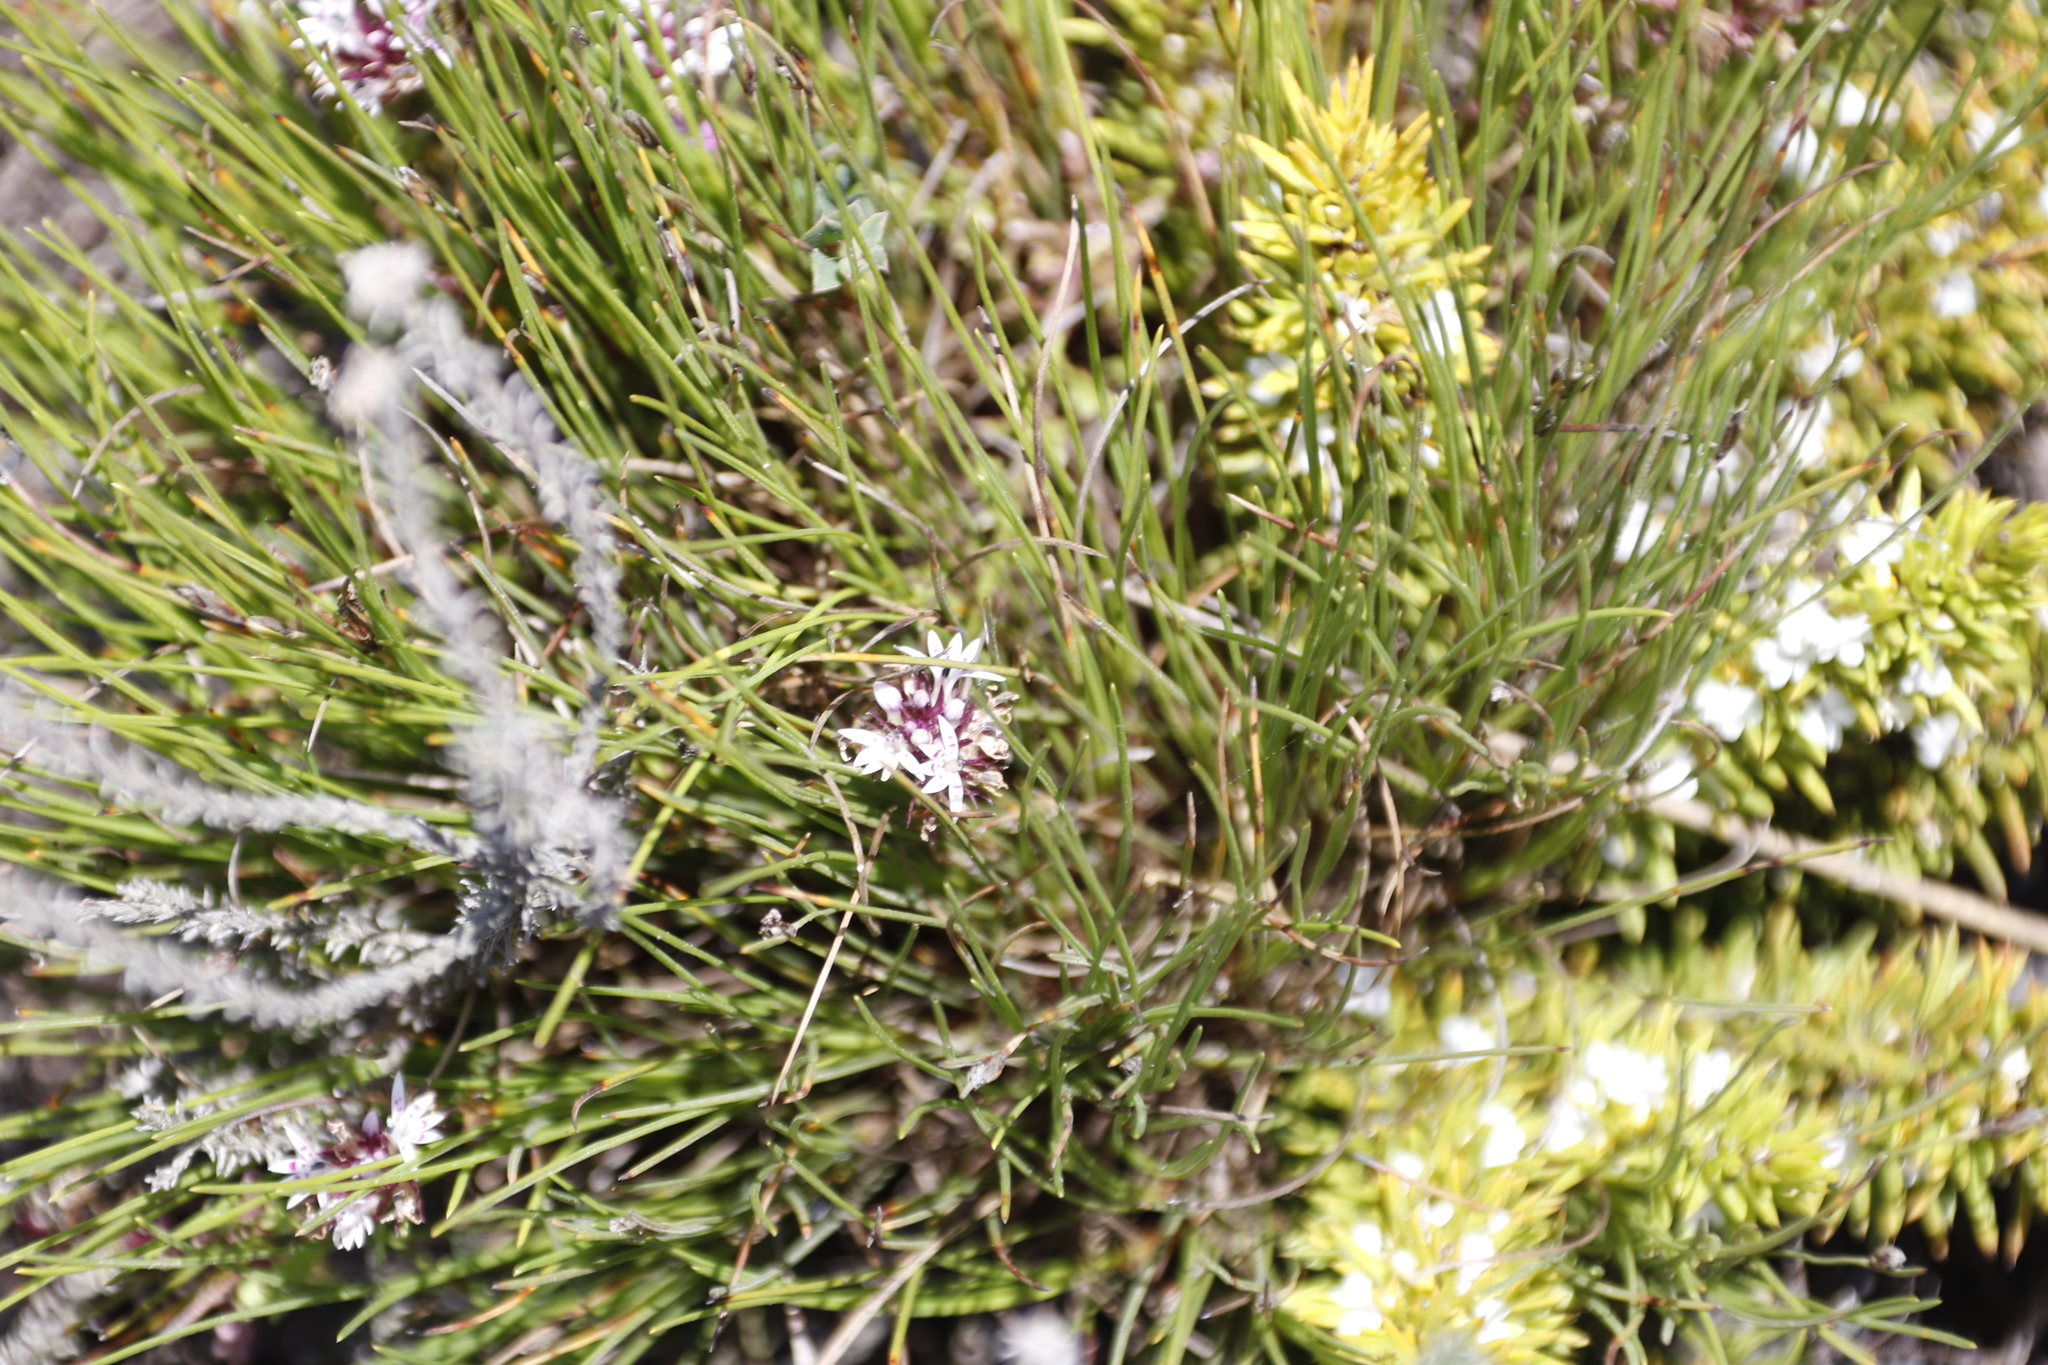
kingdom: Plantae
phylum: Tracheophyta
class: Magnoliopsida
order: Asterales
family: Campanulaceae
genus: Lobelia
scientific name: Lobelia jasionoides
